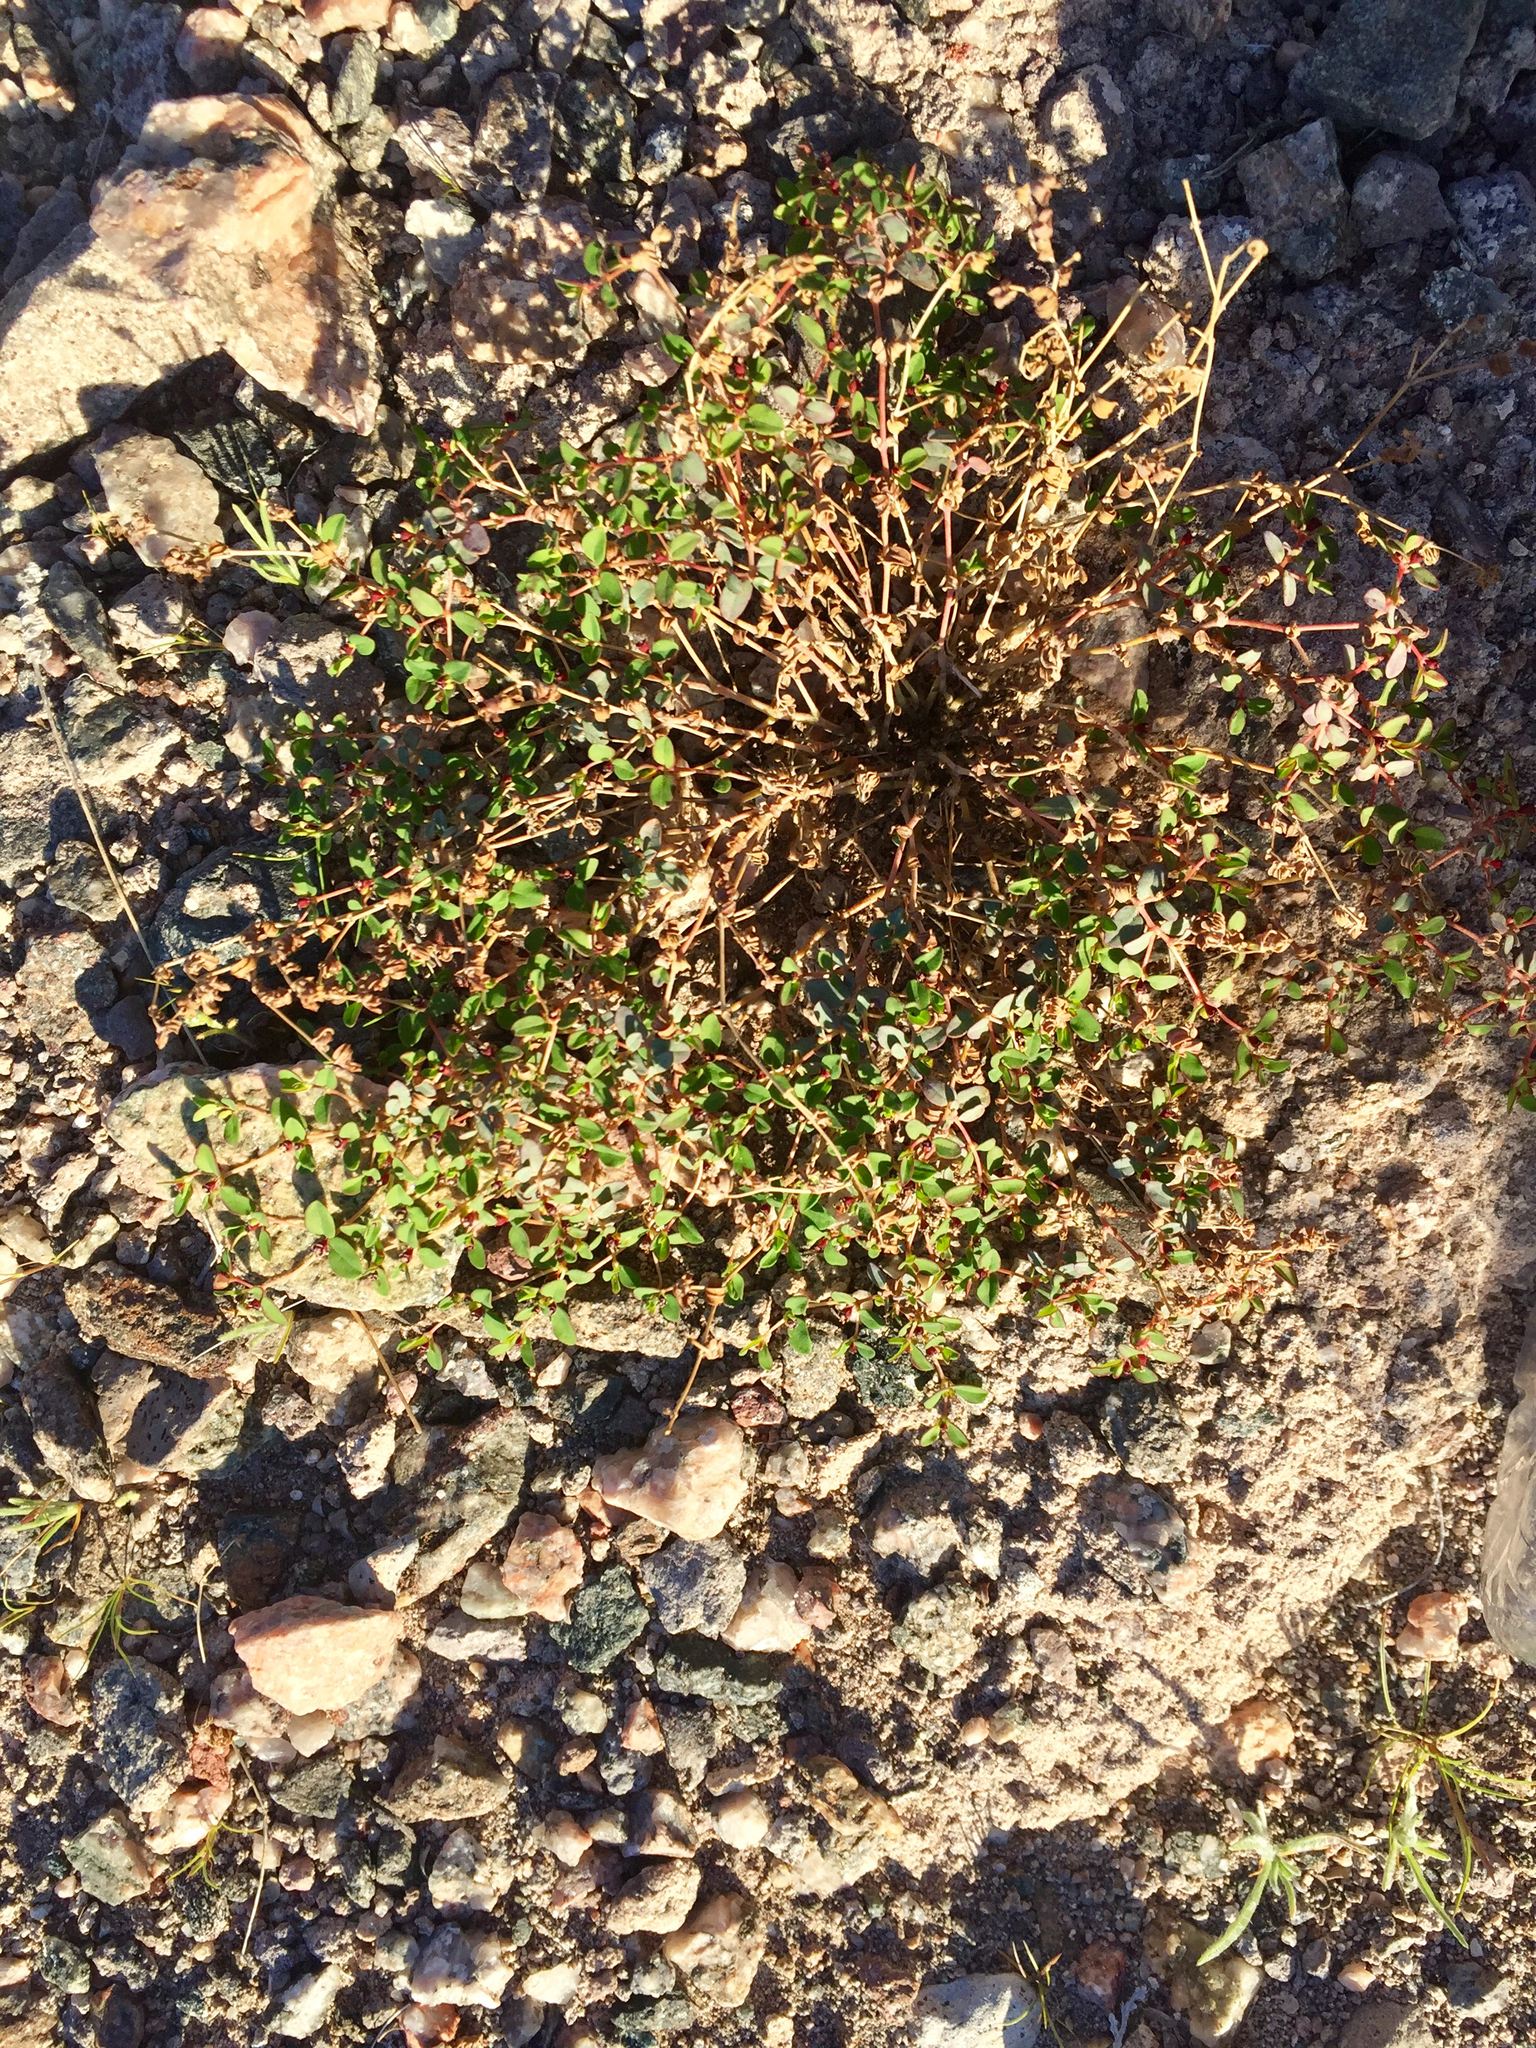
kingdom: Plantae
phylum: Tracheophyta
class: Magnoliopsida
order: Malpighiales
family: Euphorbiaceae
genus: Euphorbia
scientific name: Euphorbia polycarpa
